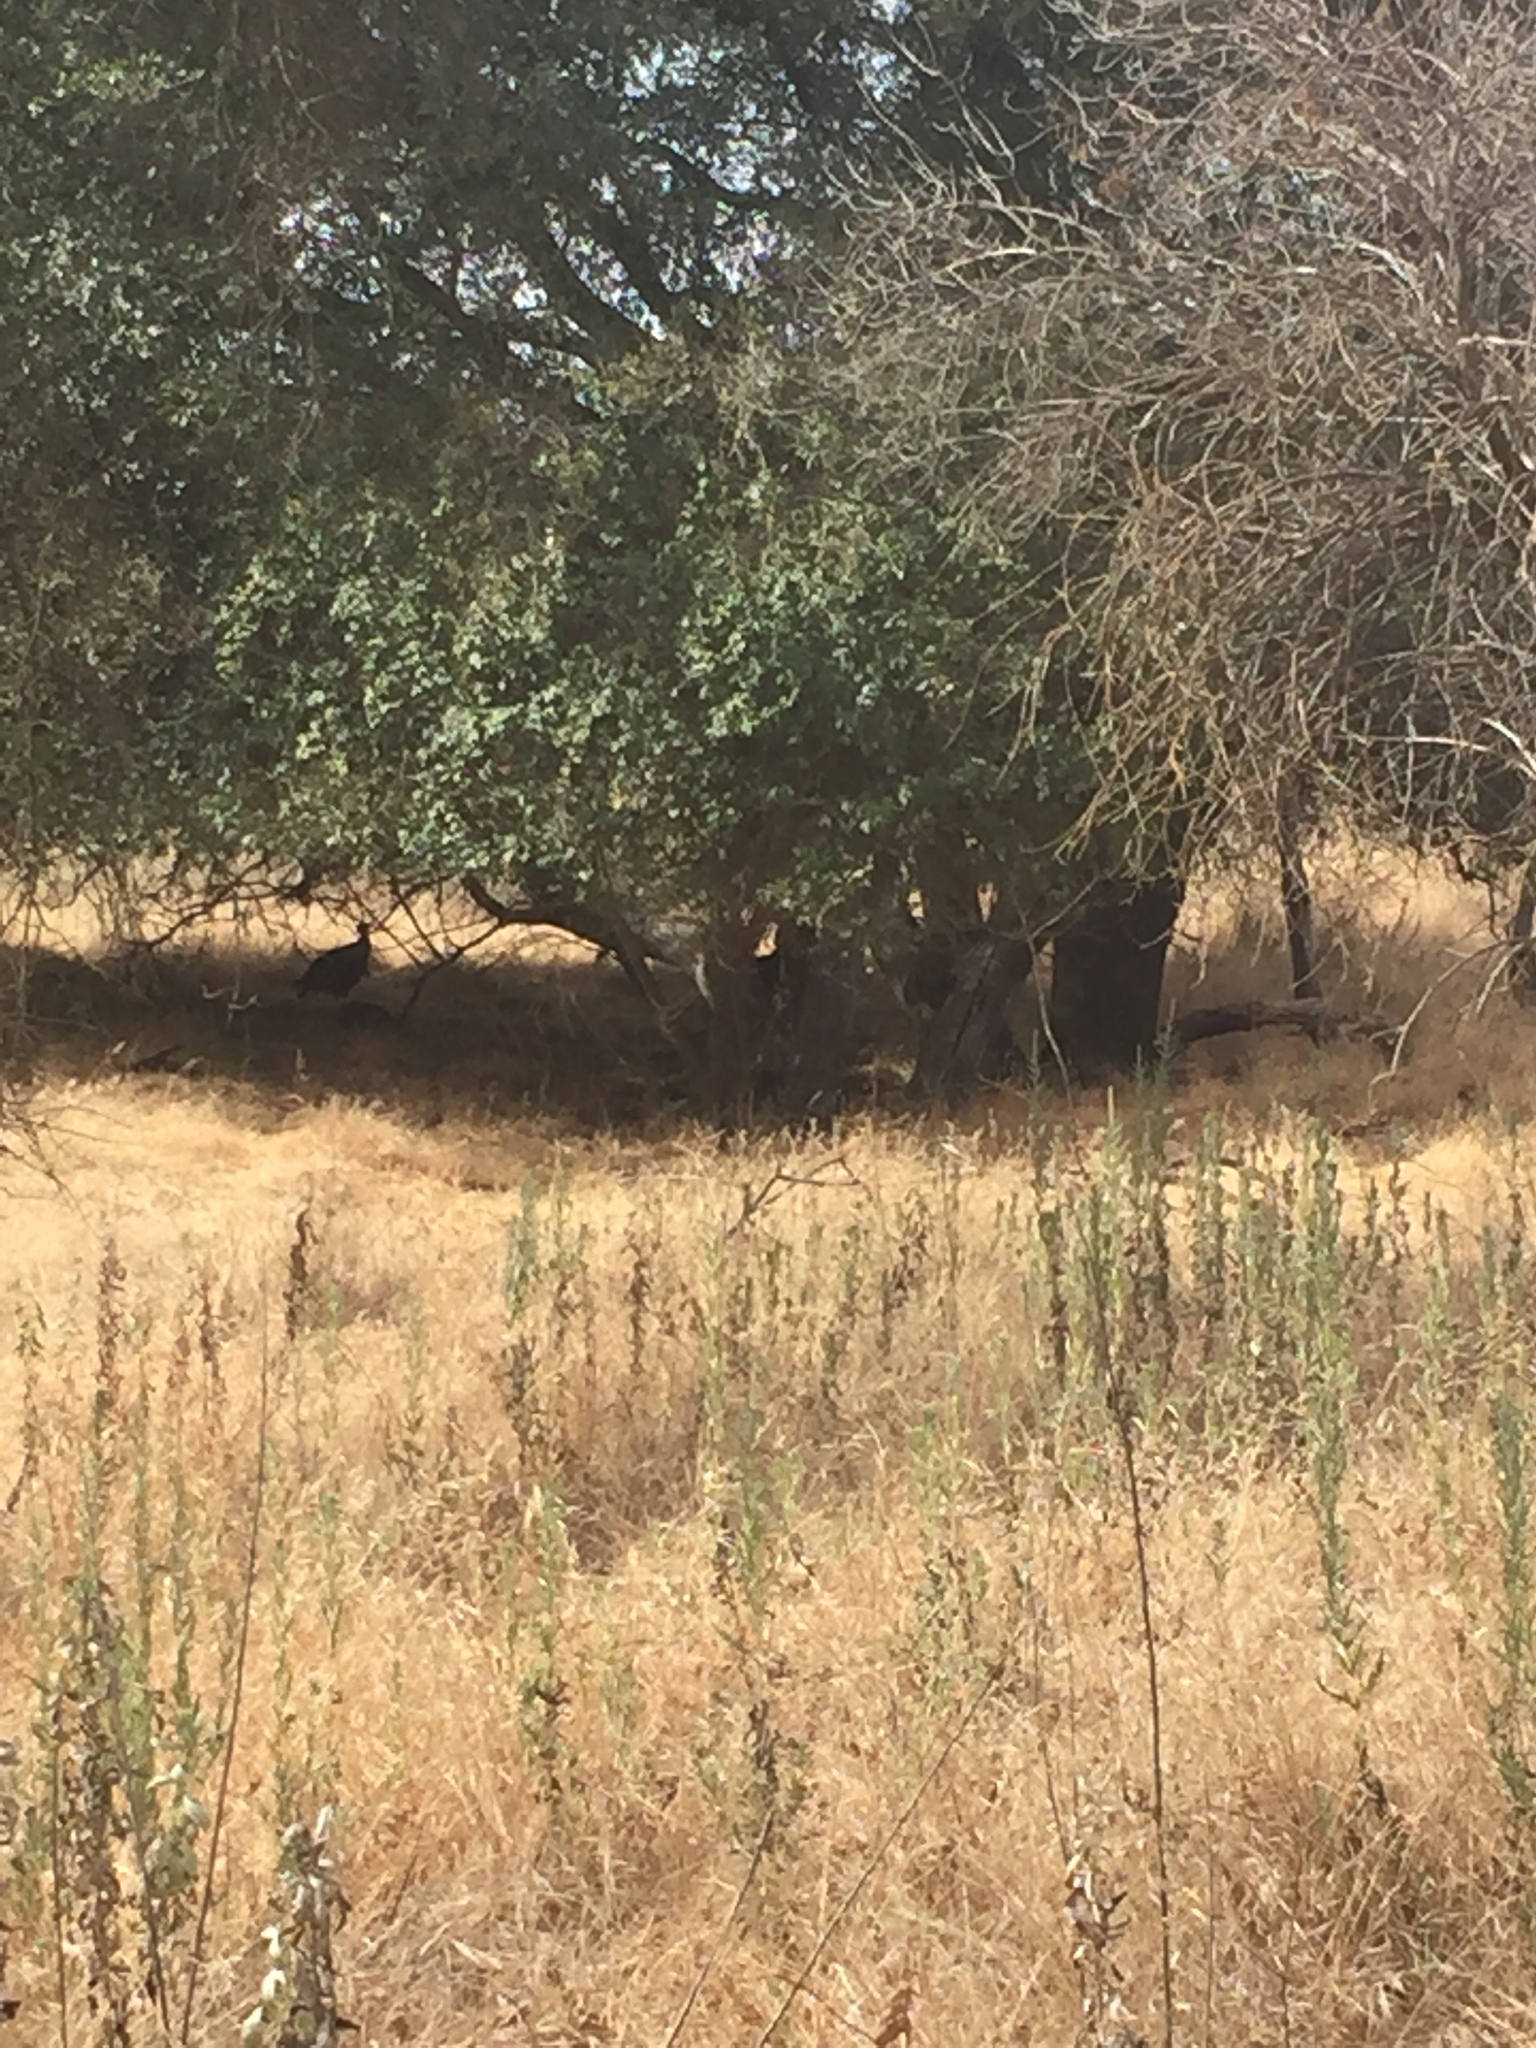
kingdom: Animalia
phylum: Chordata
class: Aves
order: Galliformes
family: Phasianidae
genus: Meleagris
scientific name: Meleagris gallopavo
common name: Wild turkey
